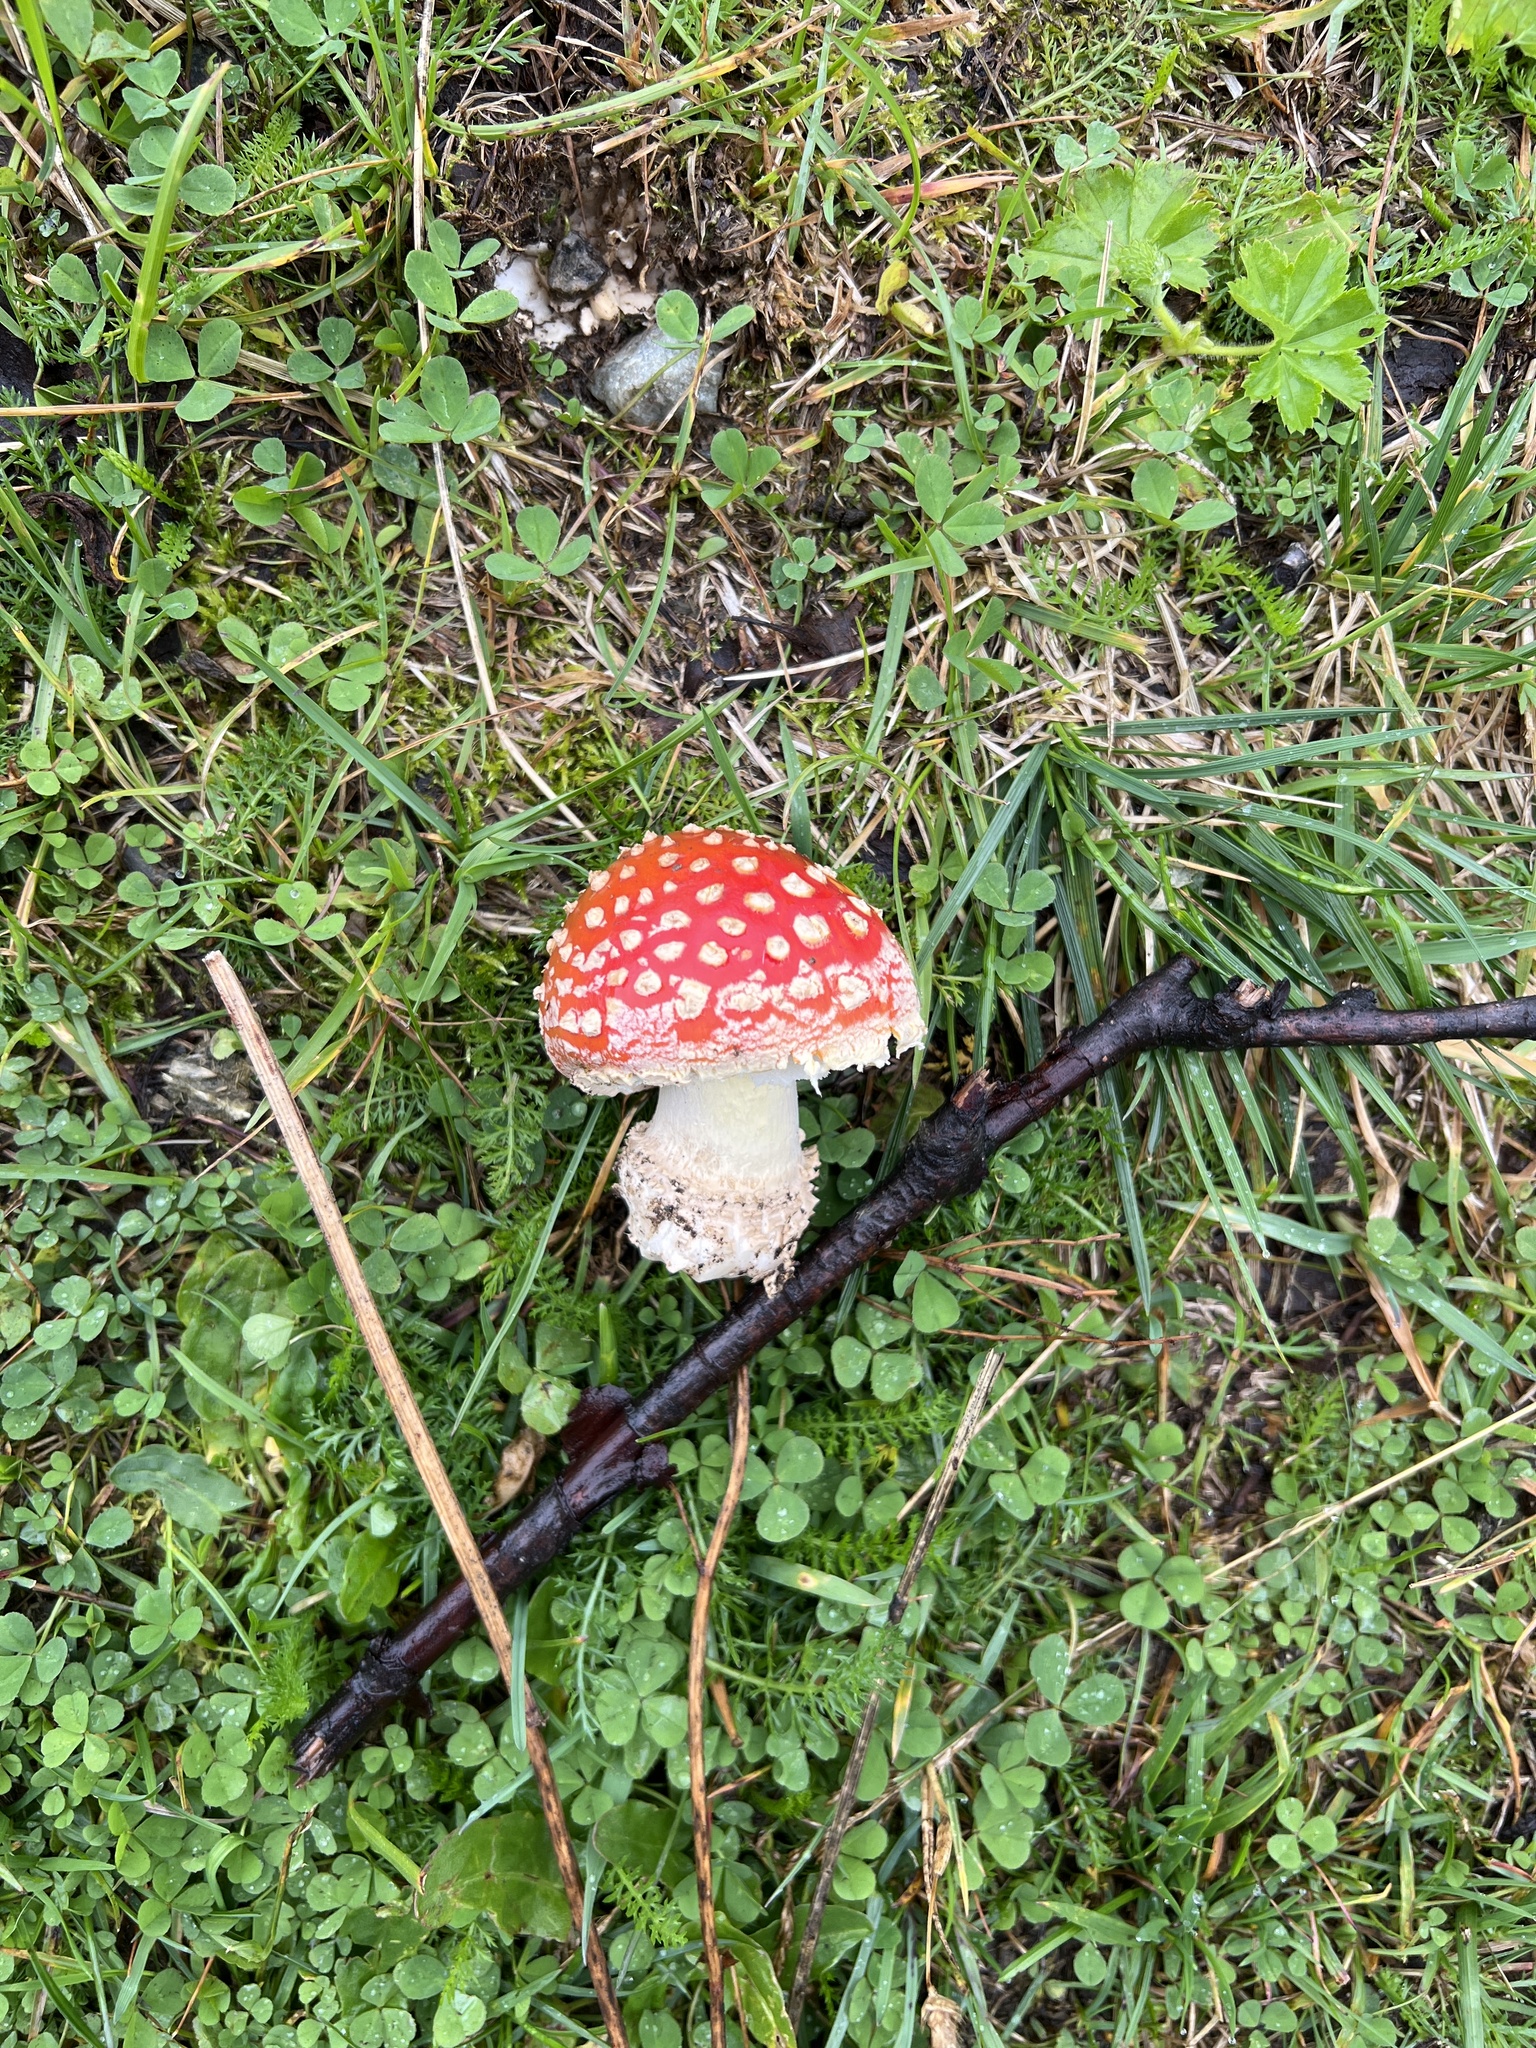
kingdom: Fungi
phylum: Basidiomycota
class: Agaricomycetes
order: Agaricales
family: Amanitaceae
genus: Amanita
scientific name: Amanita muscaria
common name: Fly agaric
